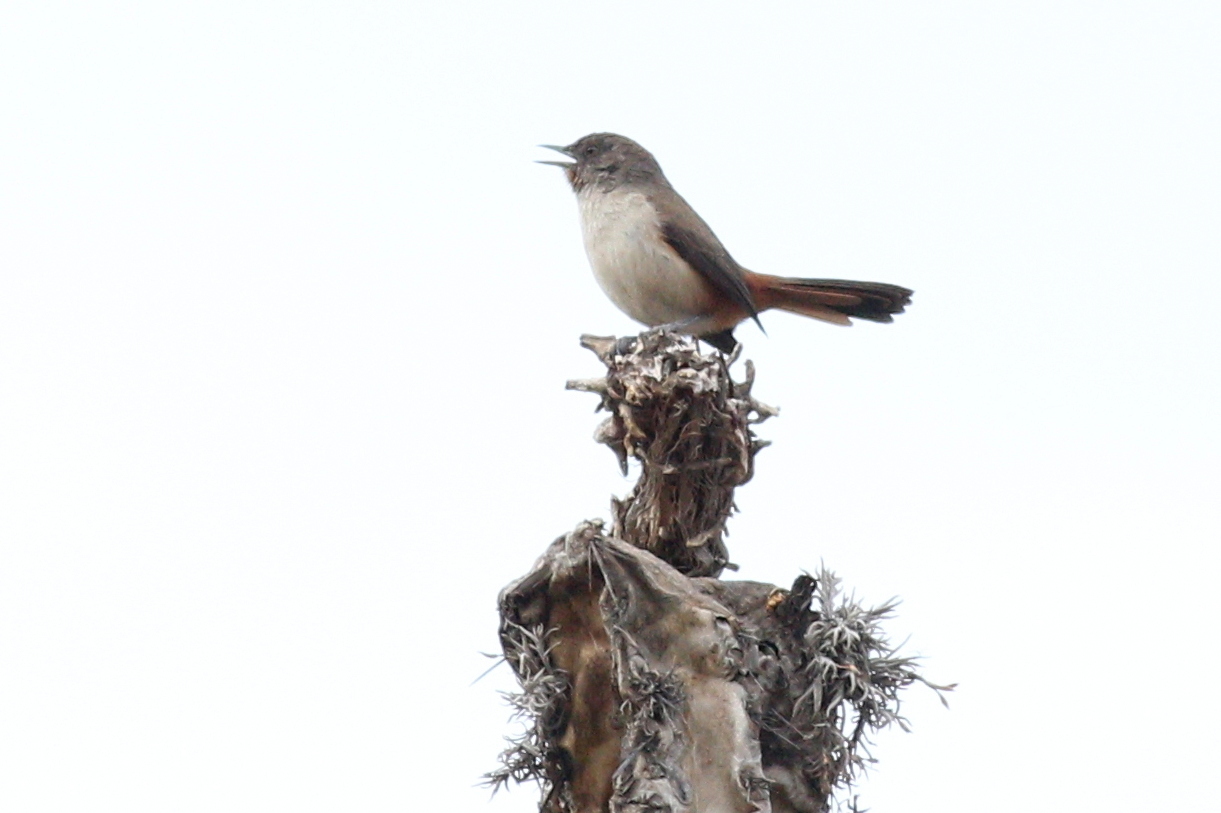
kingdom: Animalia
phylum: Chordata
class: Aves
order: Passeriformes
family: Furnariidae
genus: Asthenes
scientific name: Asthenes dorbignyi
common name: Rusty-vented canastero
